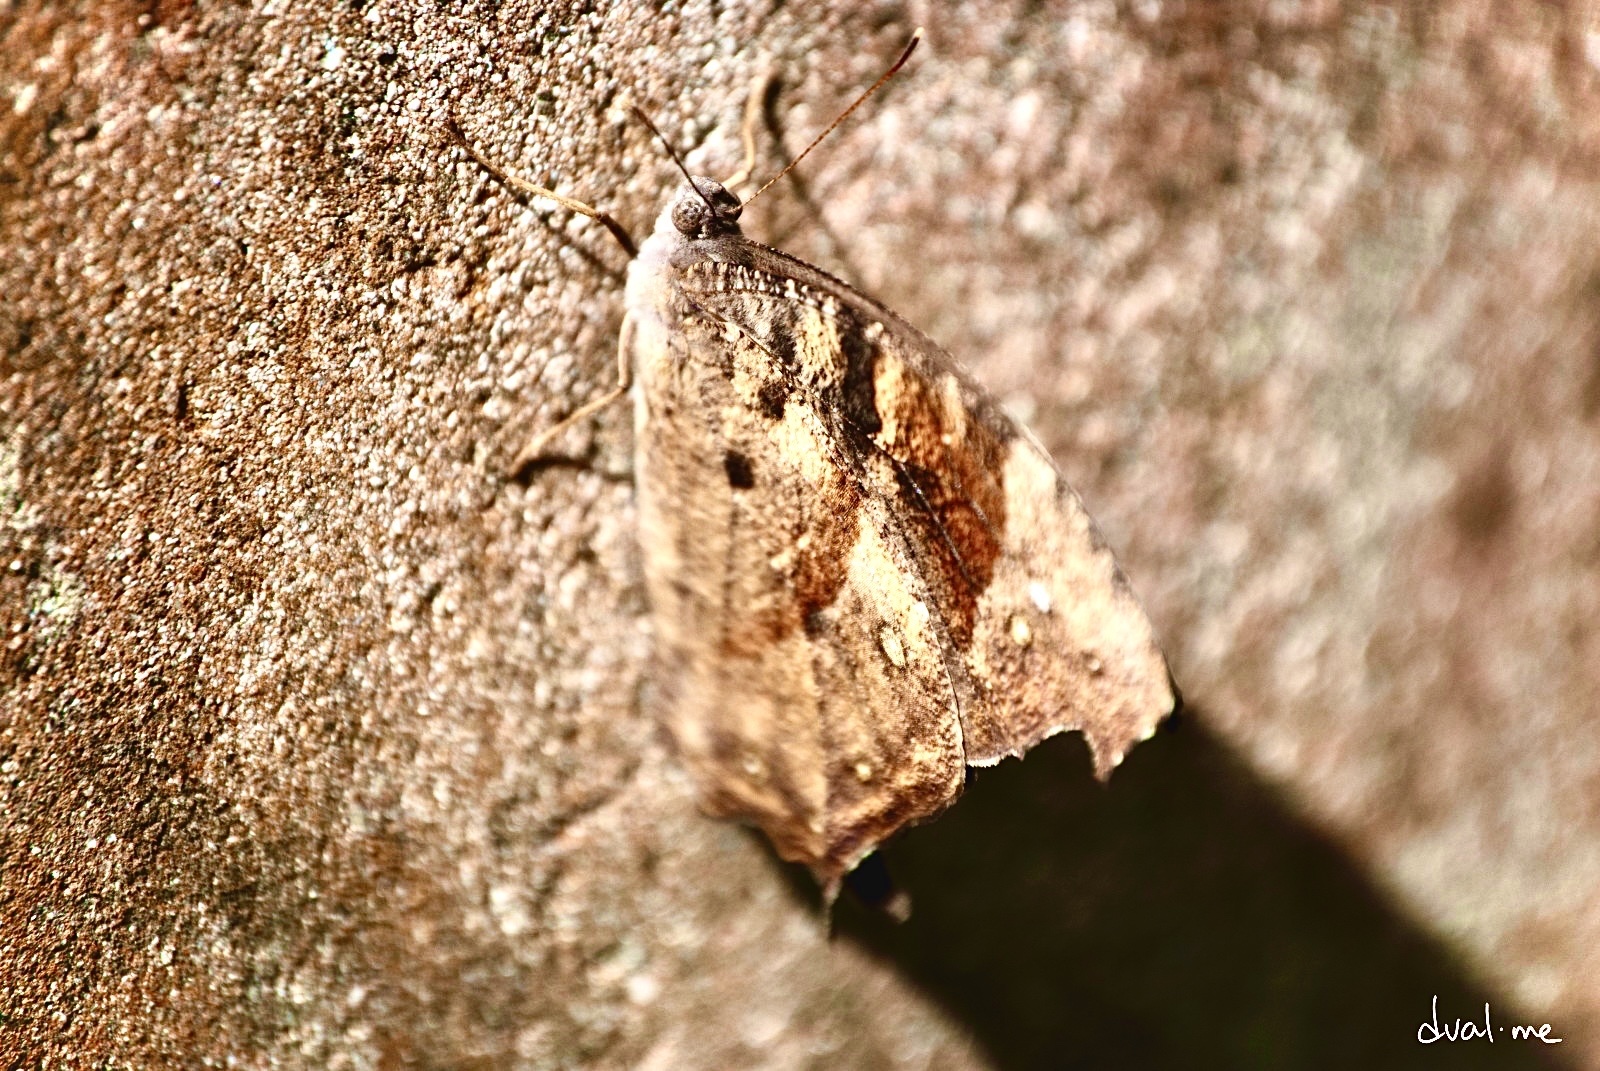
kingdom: Animalia
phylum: Arthropoda
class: Insecta
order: Lepidoptera
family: Nymphalidae
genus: Melanitis
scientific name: Melanitis leda
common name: Twilight brown
